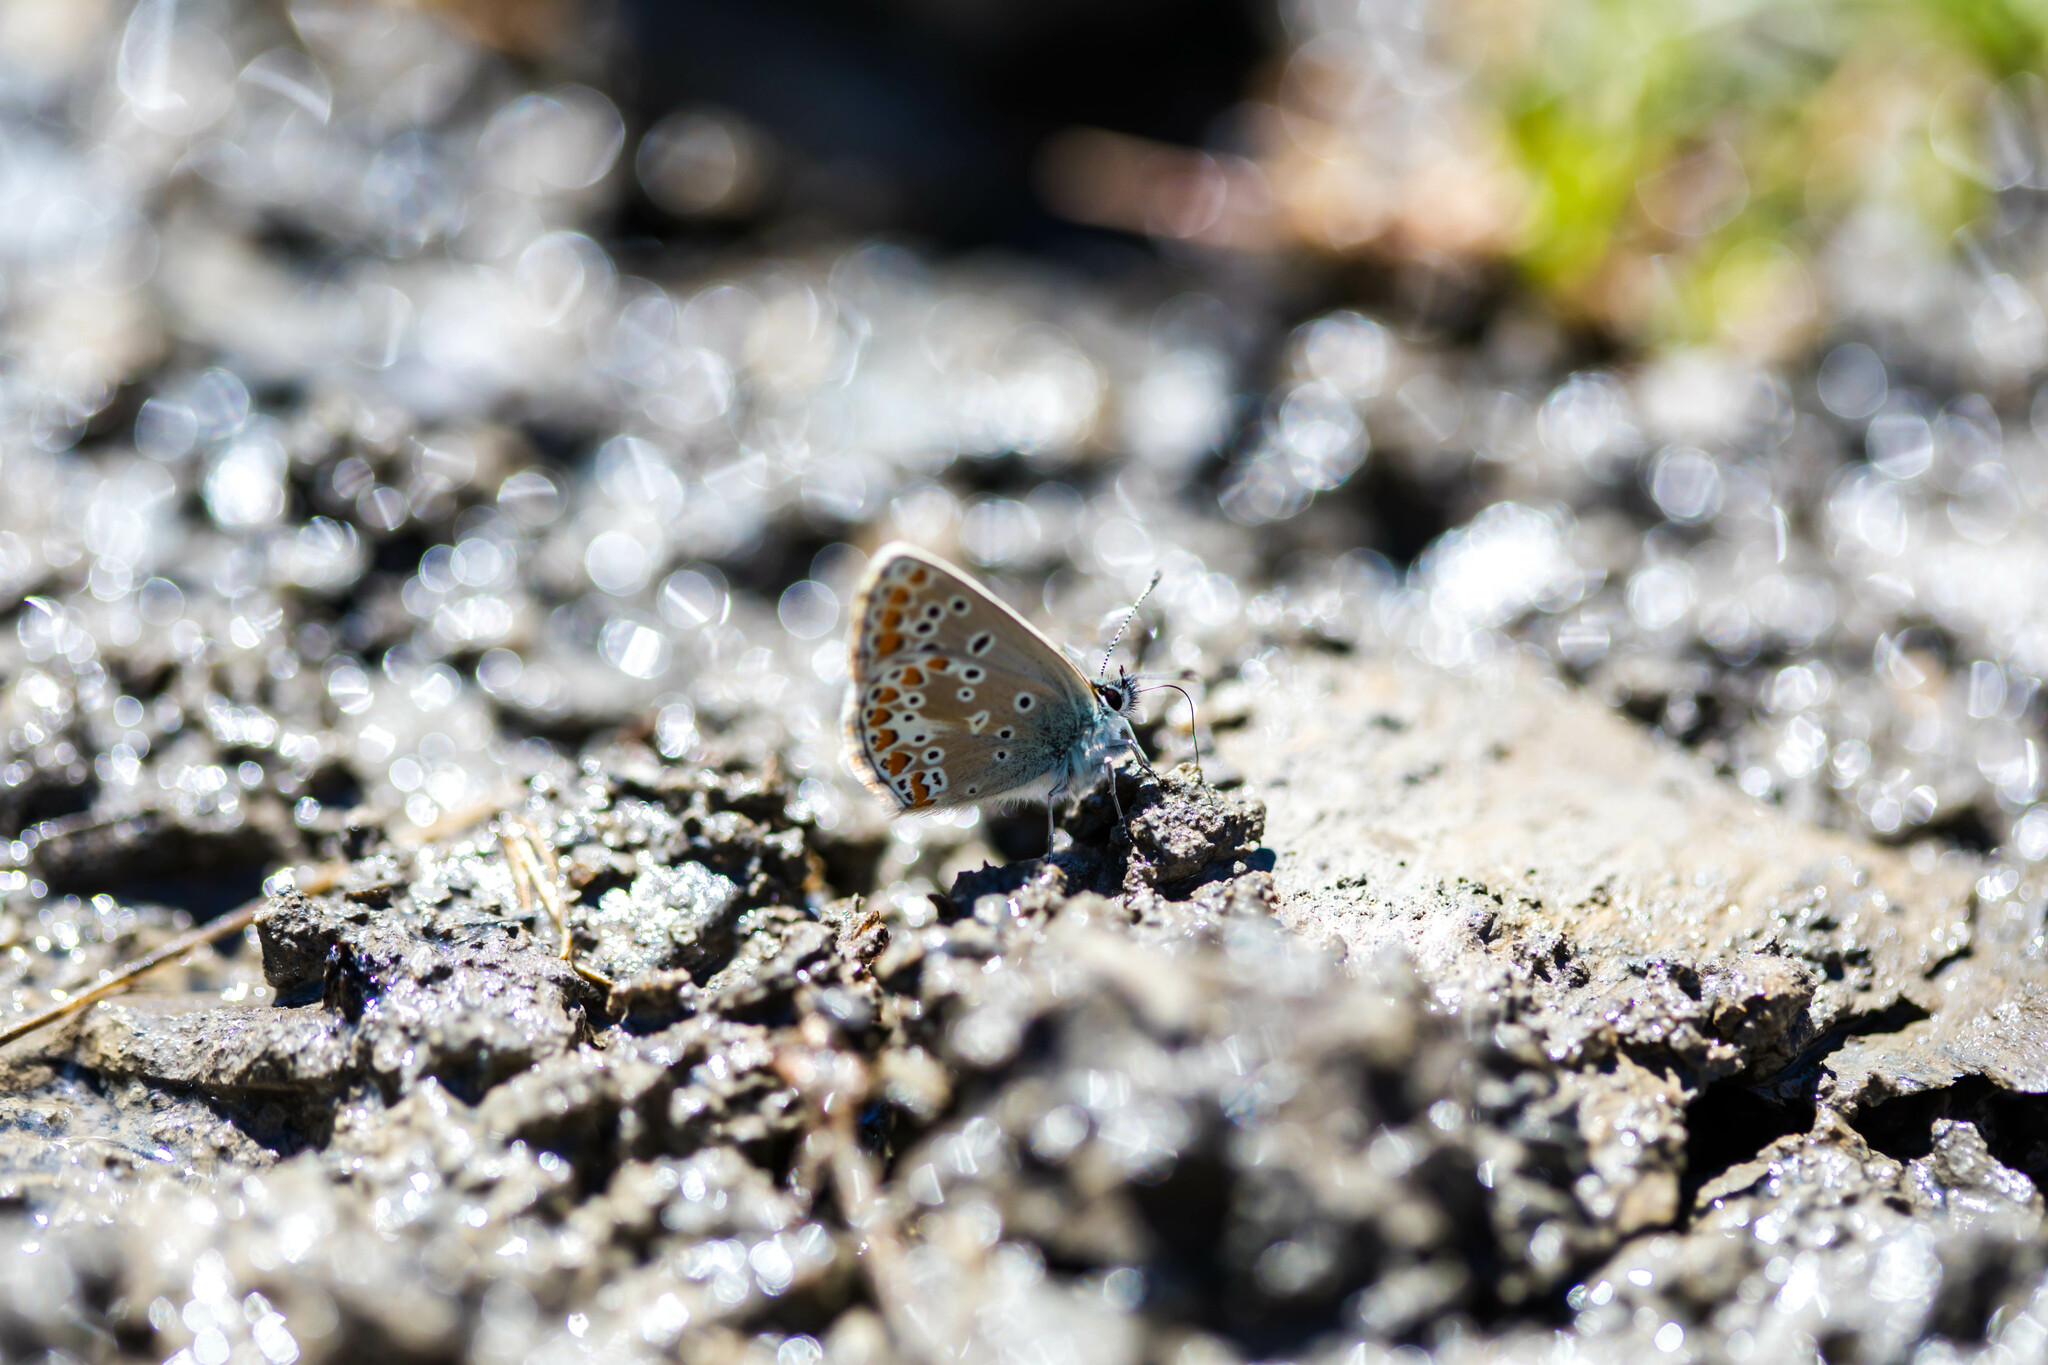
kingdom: Animalia
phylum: Arthropoda
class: Insecta
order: Lepidoptera
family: Lycaenidae
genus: Aricia
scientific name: Aricia artaxerxes
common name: Northern brown argus
